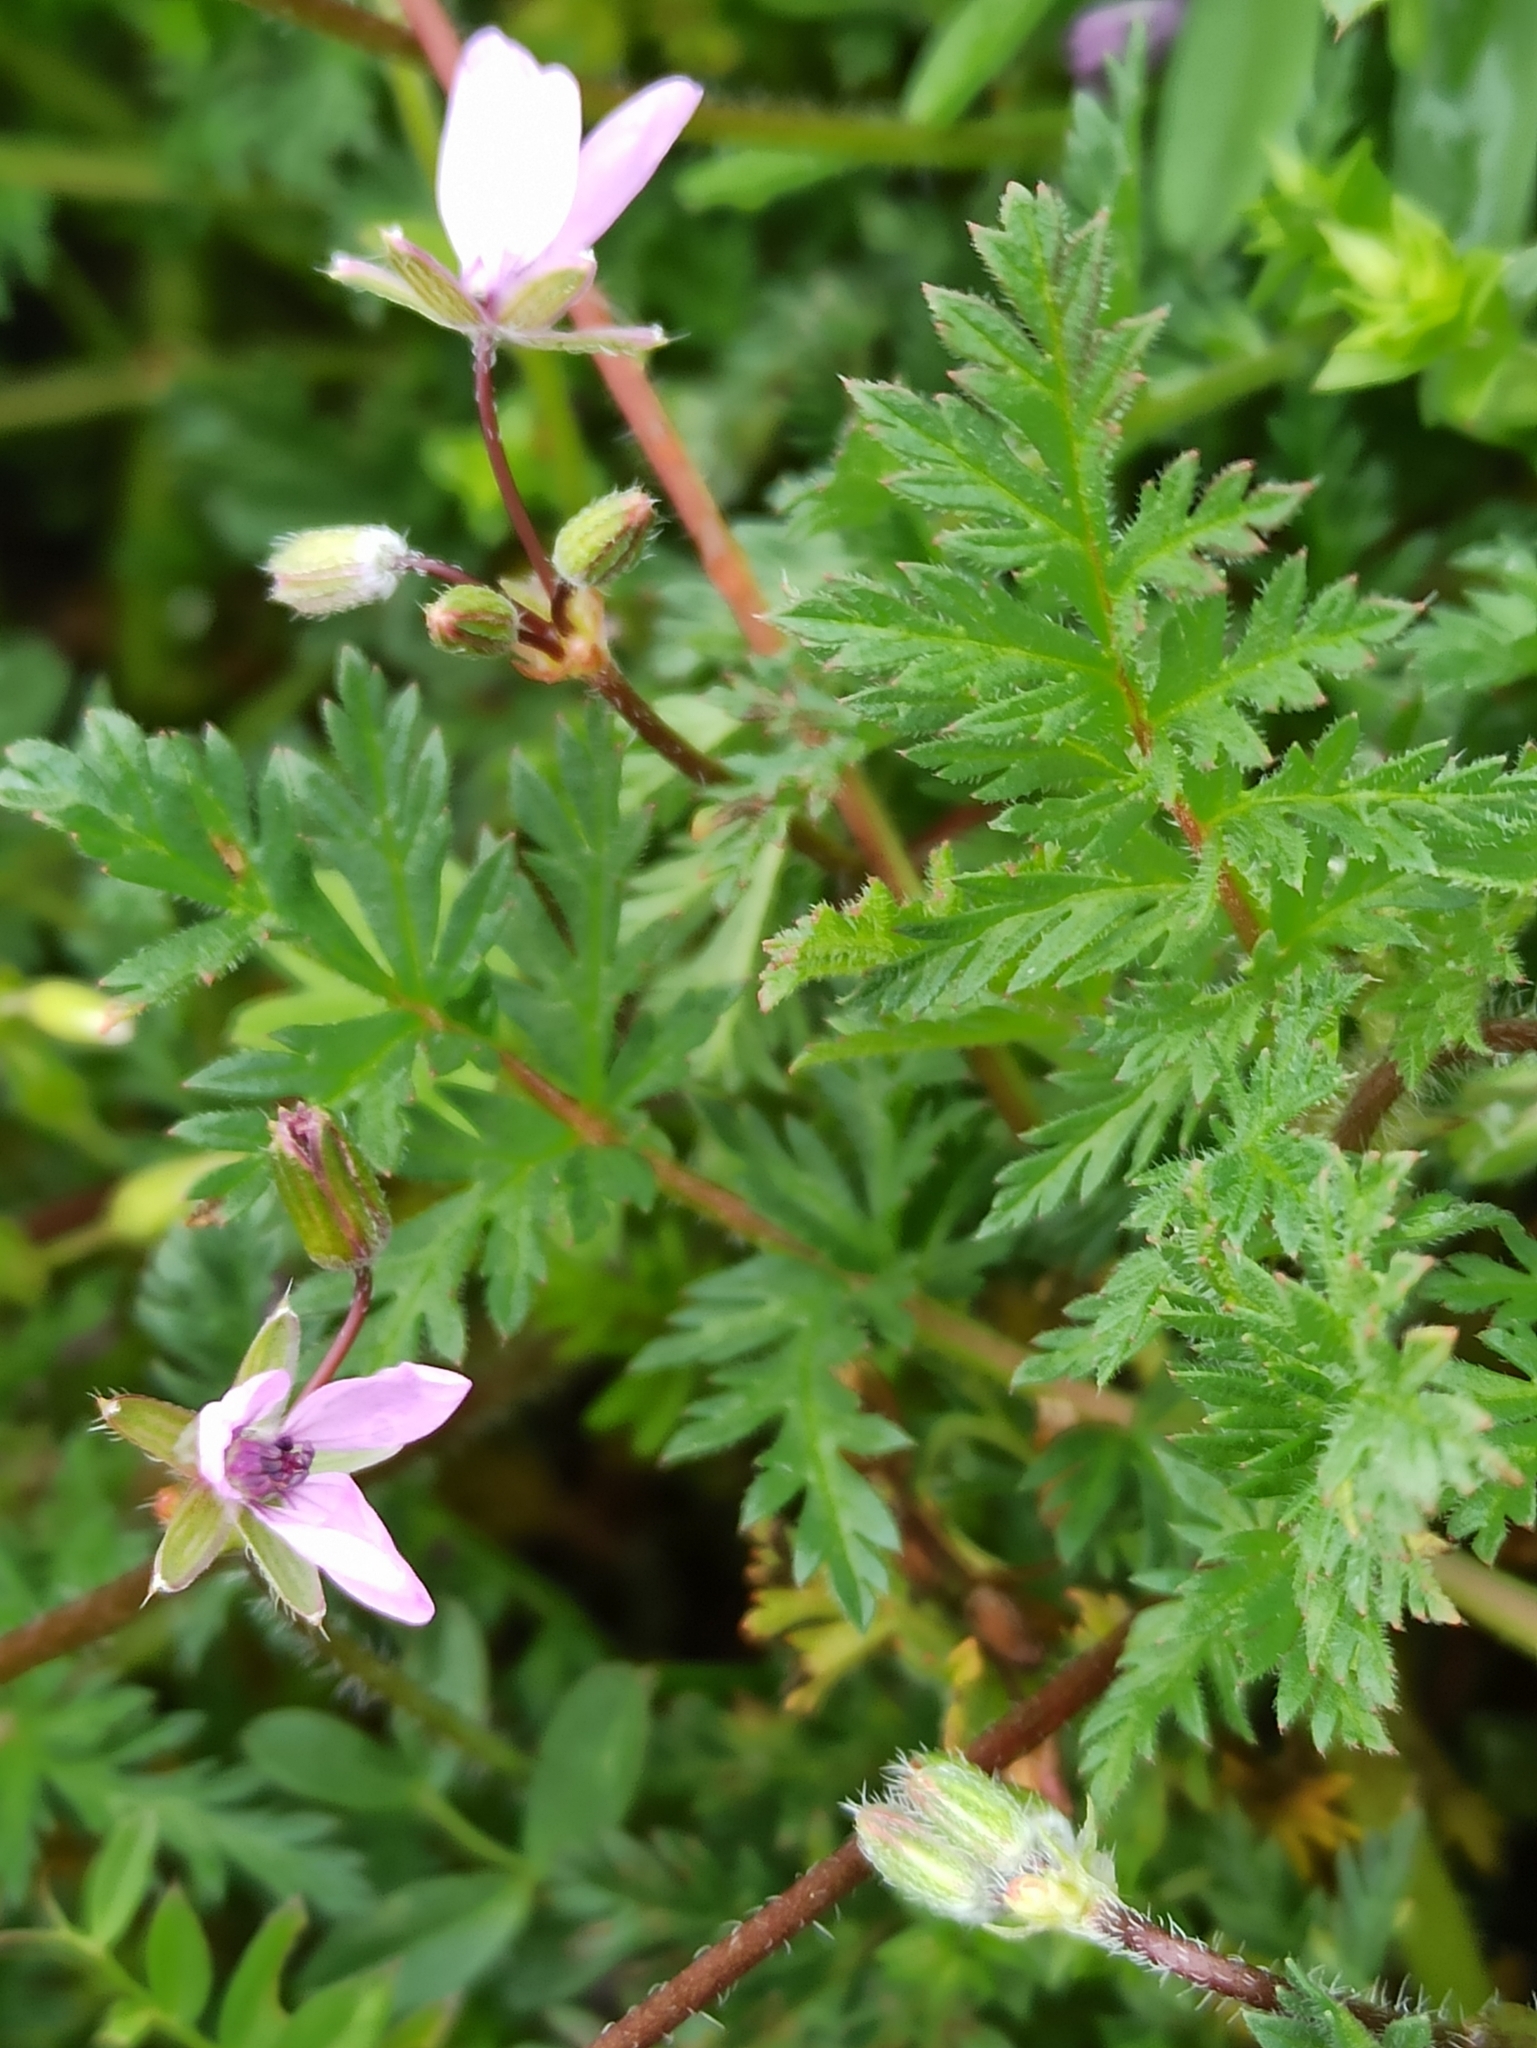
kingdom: Plantae
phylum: Tracheophyta
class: Magnoliopsida
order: Geraniales
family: Geraniaceae
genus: Erodium
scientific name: Erodium cicutarium
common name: Common stork's-bill
